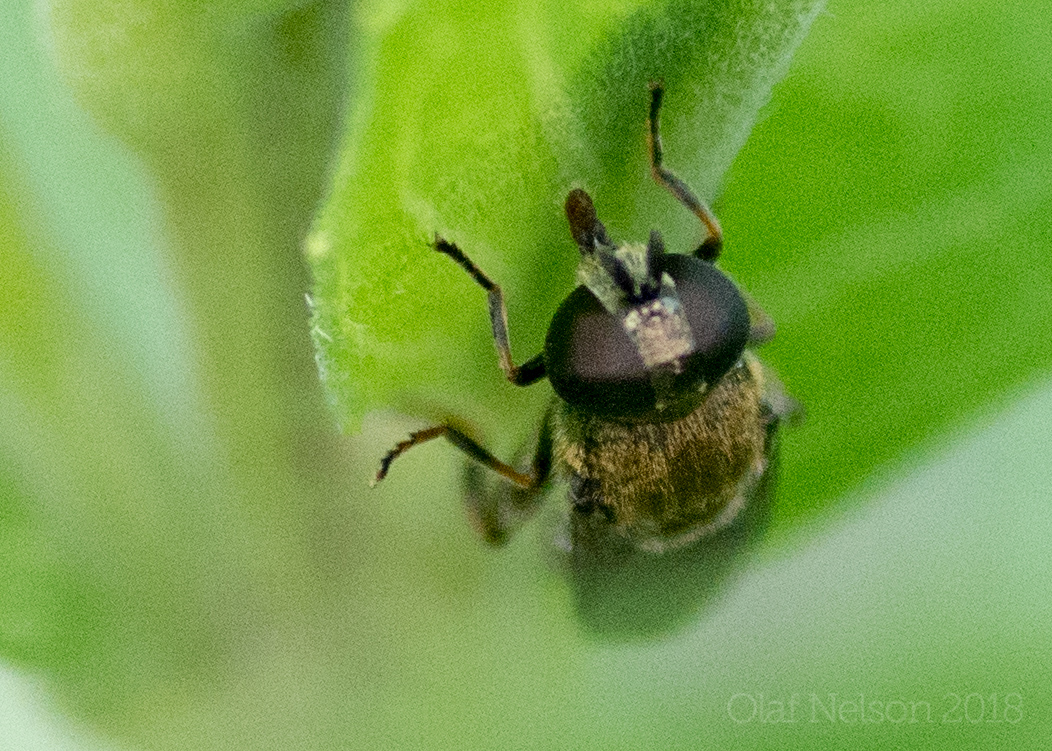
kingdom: Animalia
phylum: Arthropoda
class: Insecta
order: Diptera
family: Syrphidae
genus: Eumerus
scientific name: Eumerus
